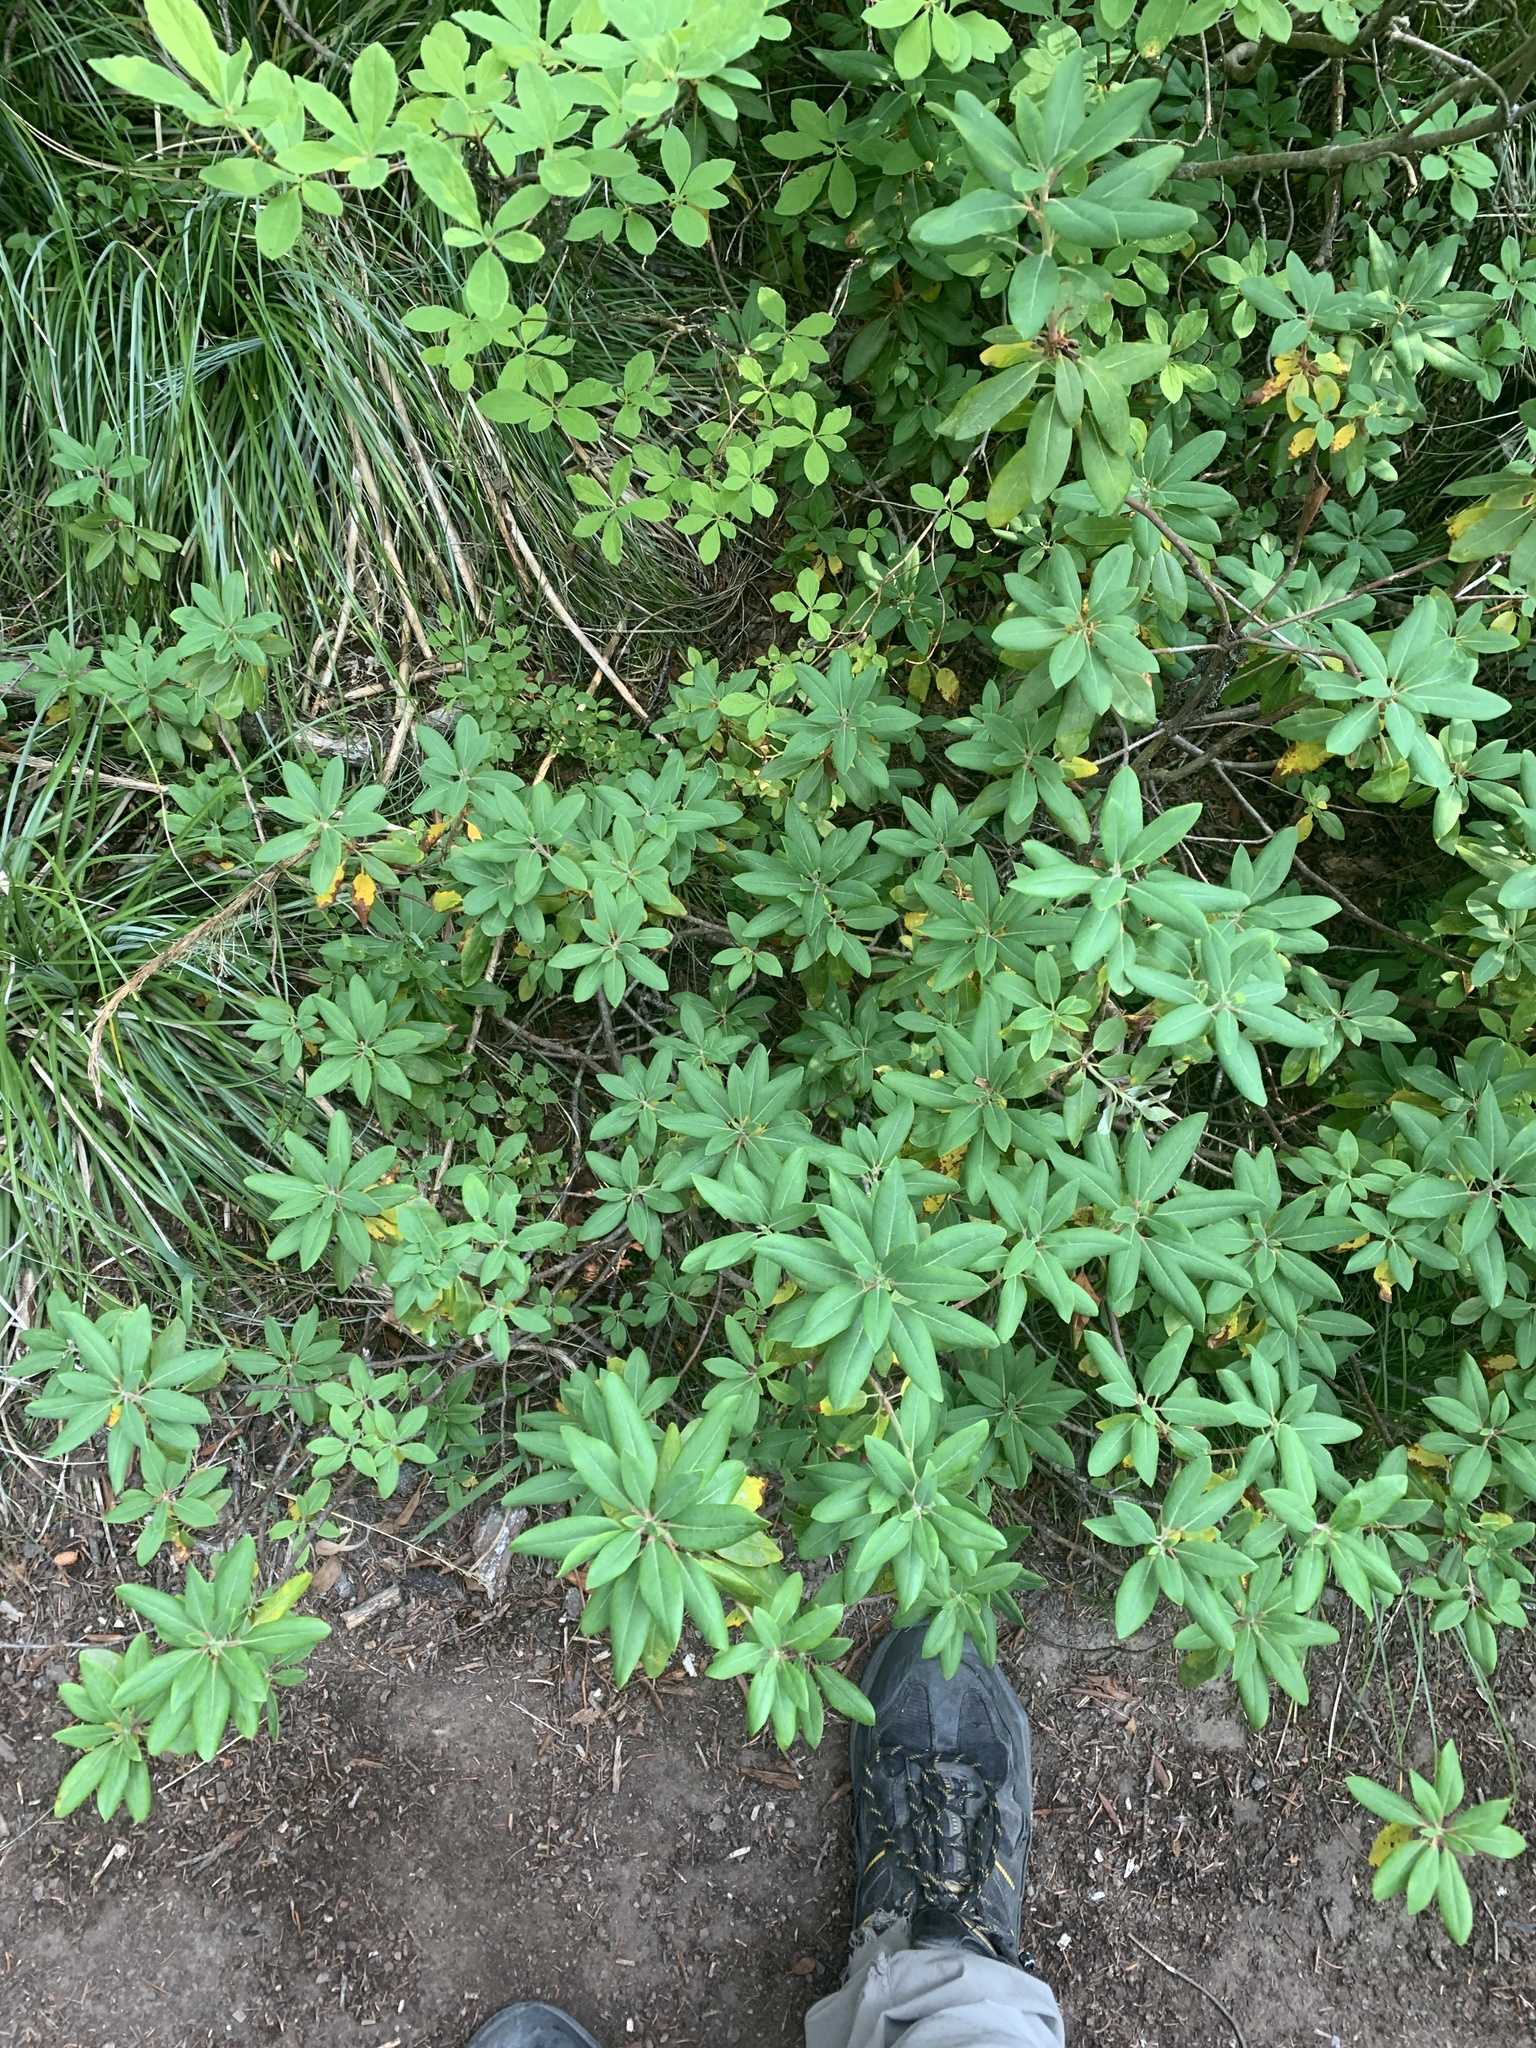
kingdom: Plantae
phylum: Tracheophyta
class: Magnoliopsida
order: Ericales
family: Ericaceae
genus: Rhododendron
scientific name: Rhododendron columbianum
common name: Western labrador tea
